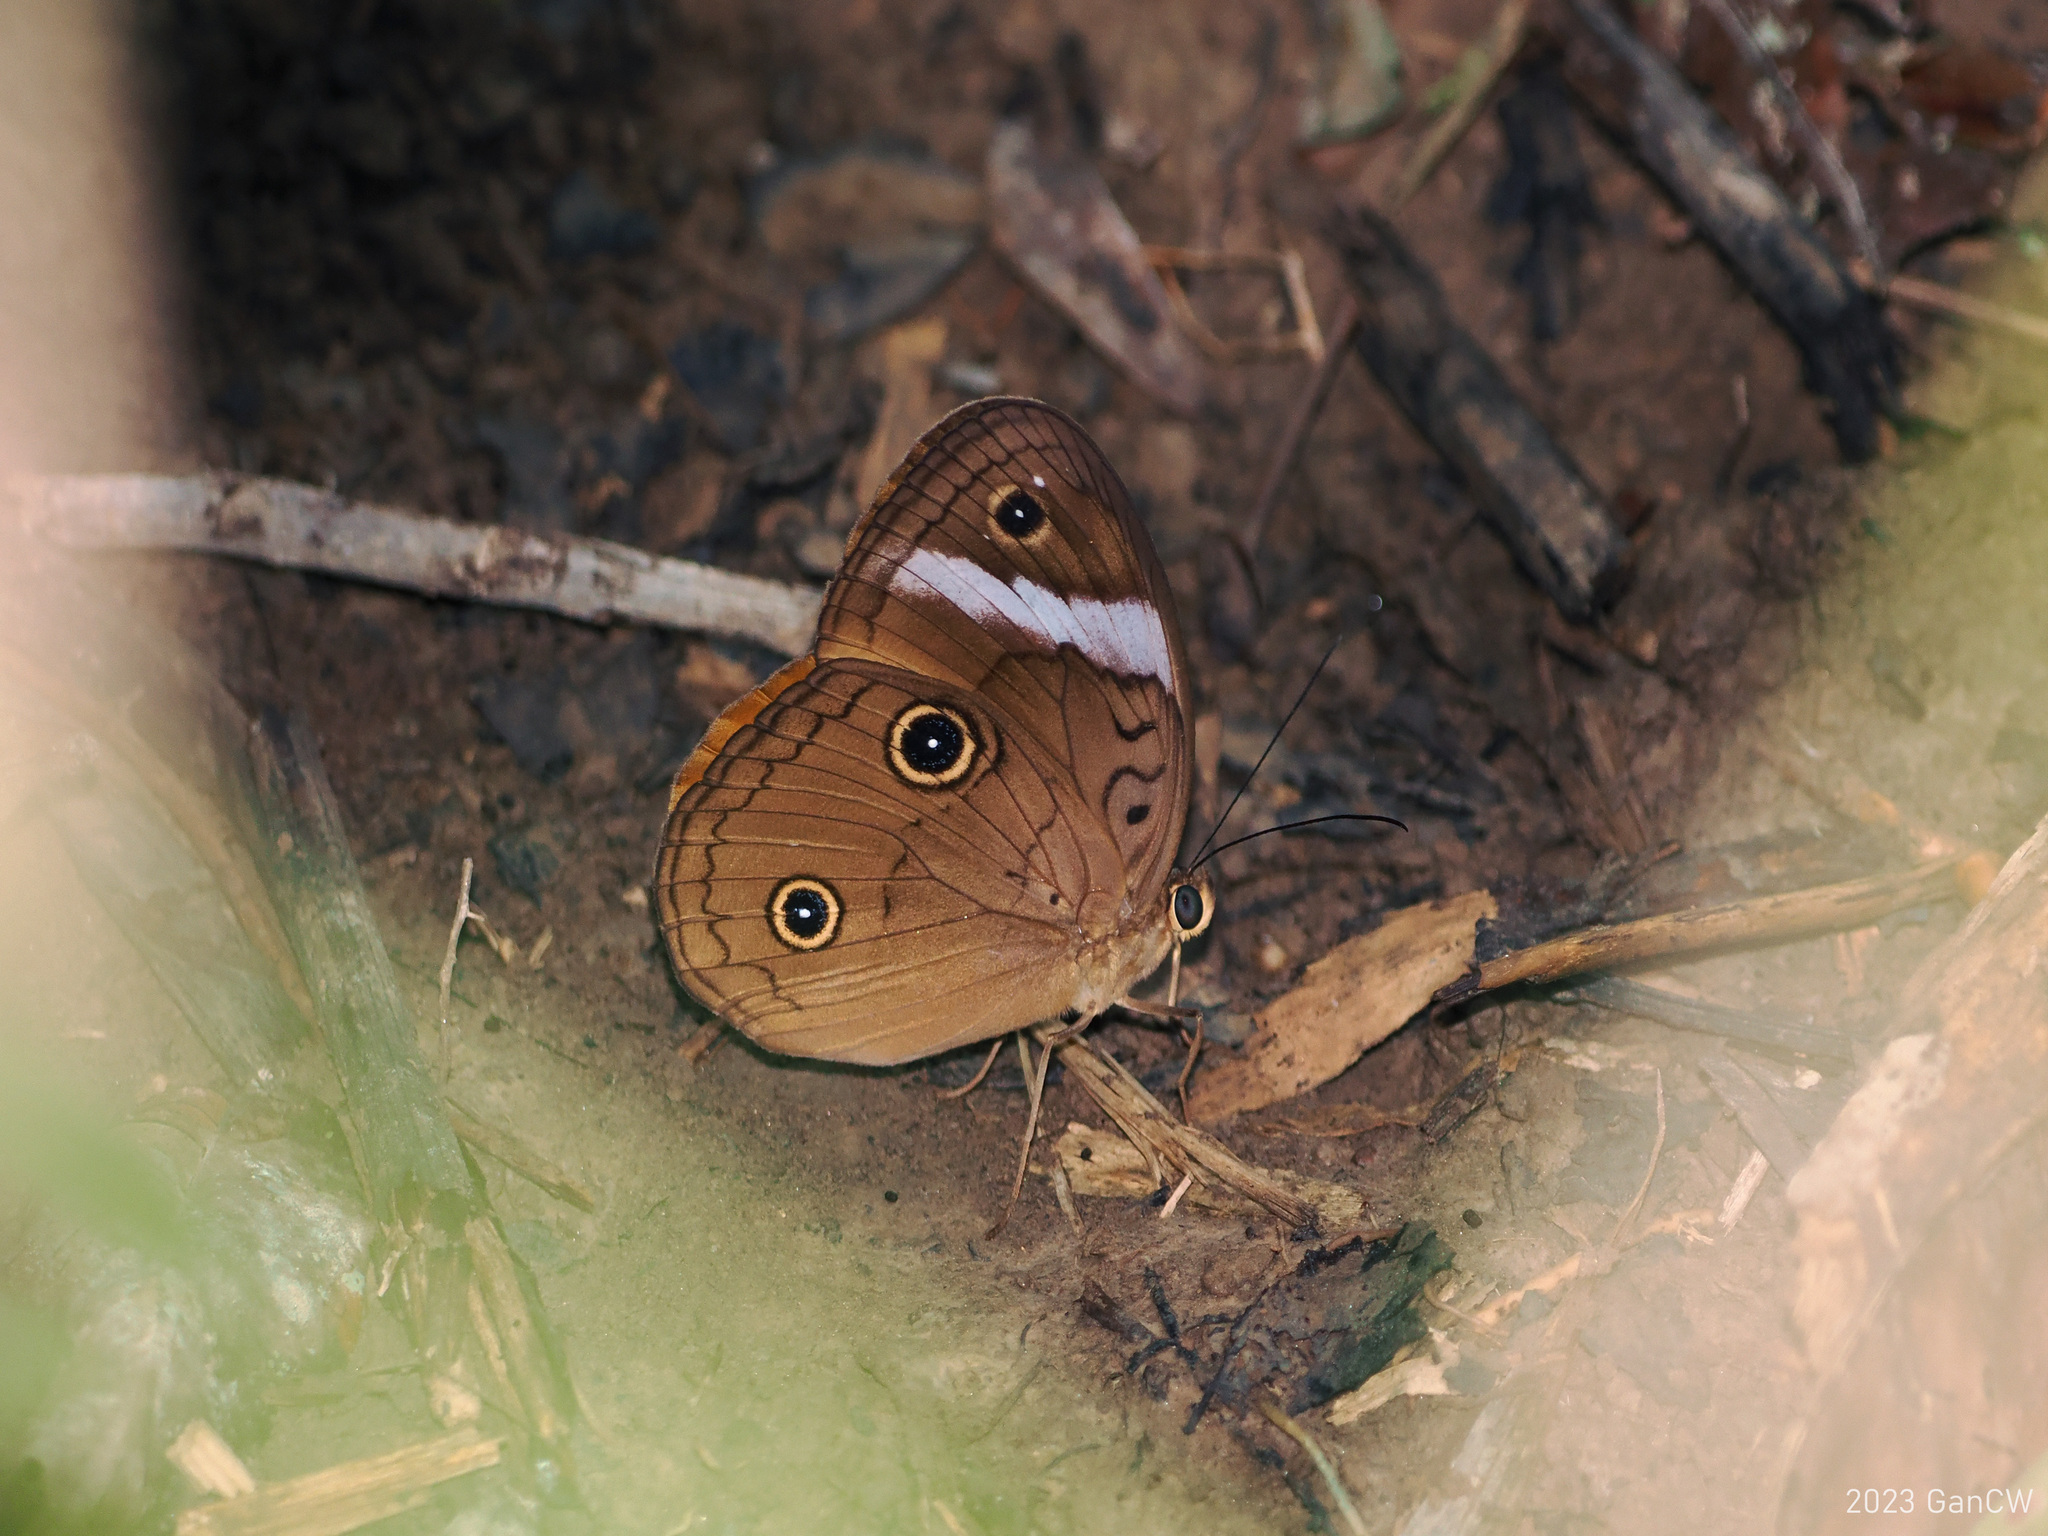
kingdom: Animalia
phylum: Arthropoda
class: Insecta
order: Lepidoptera
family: Nymphalidae
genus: Faunis
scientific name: Faunis menado
